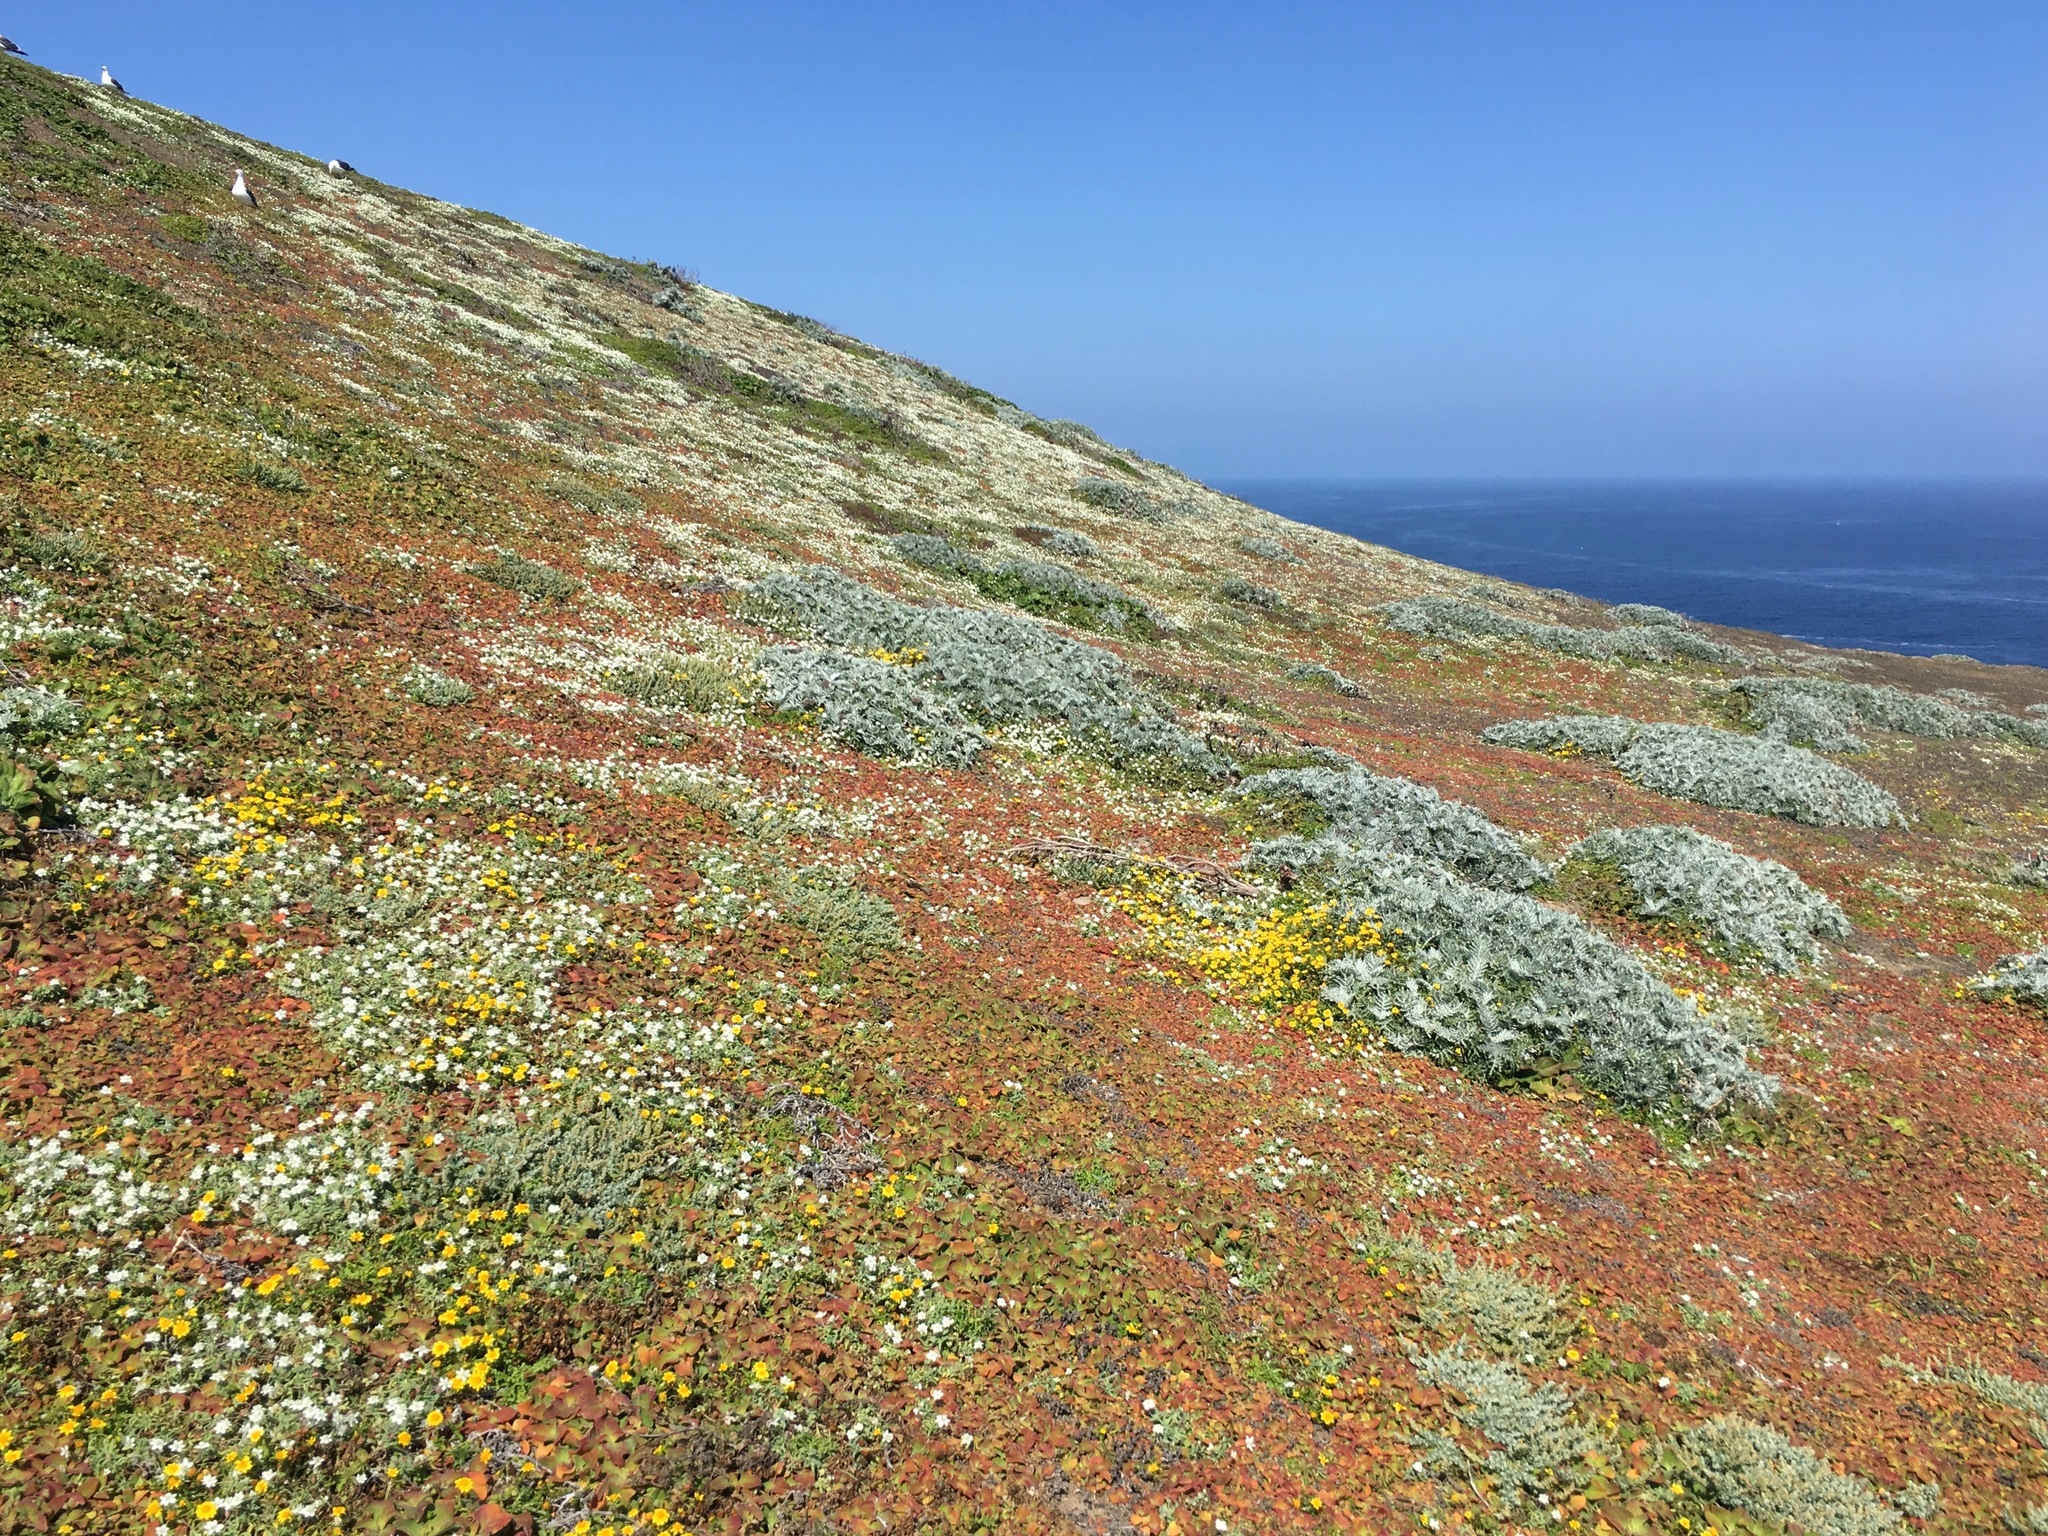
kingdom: Plantae
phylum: Tracheophyta
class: Magnoliopsida
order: Asterales
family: Asteraceae
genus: Constancea
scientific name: Constancea nevinii
